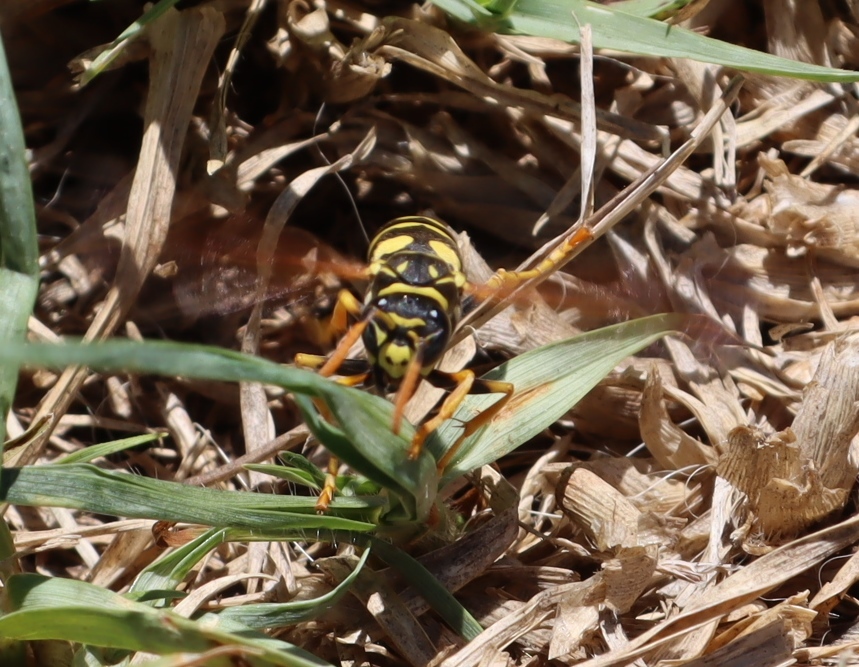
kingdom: Animalia
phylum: Arthropoda
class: Insecta
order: Hymenoptera
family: Eumenidae
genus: Polistes
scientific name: Polistes dominula
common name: Paper wasp
